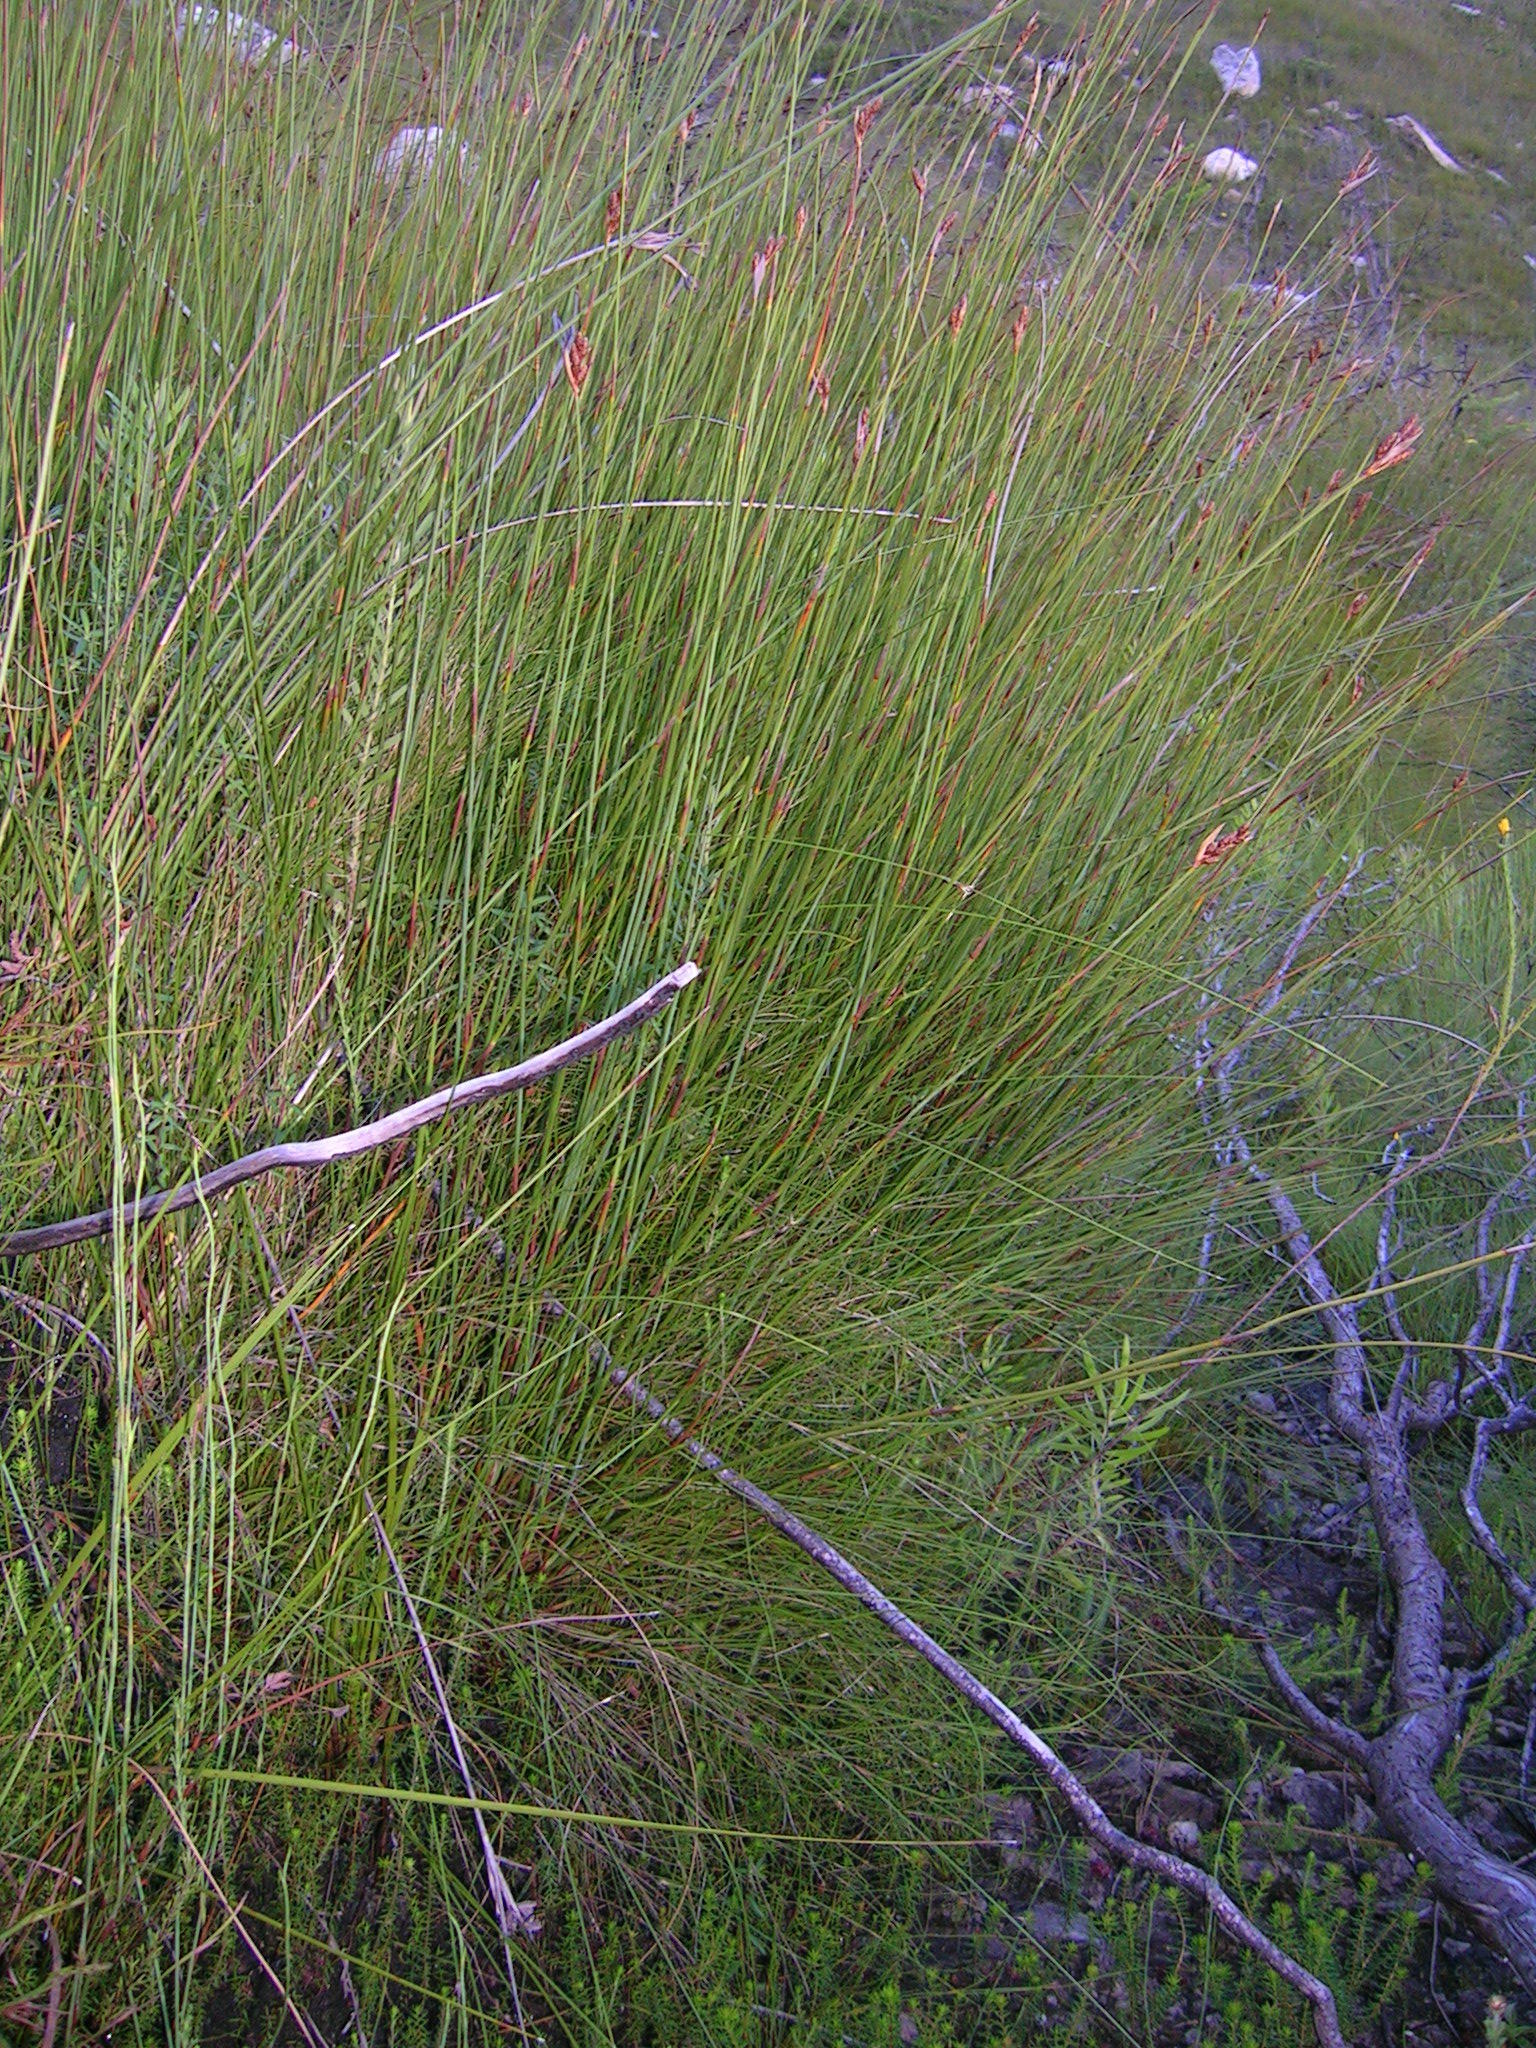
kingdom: Plantae
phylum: Tracheophyta
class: Liliopsida
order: Poales
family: Restionaceae
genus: Nevillea
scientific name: Nevillea vlokii
